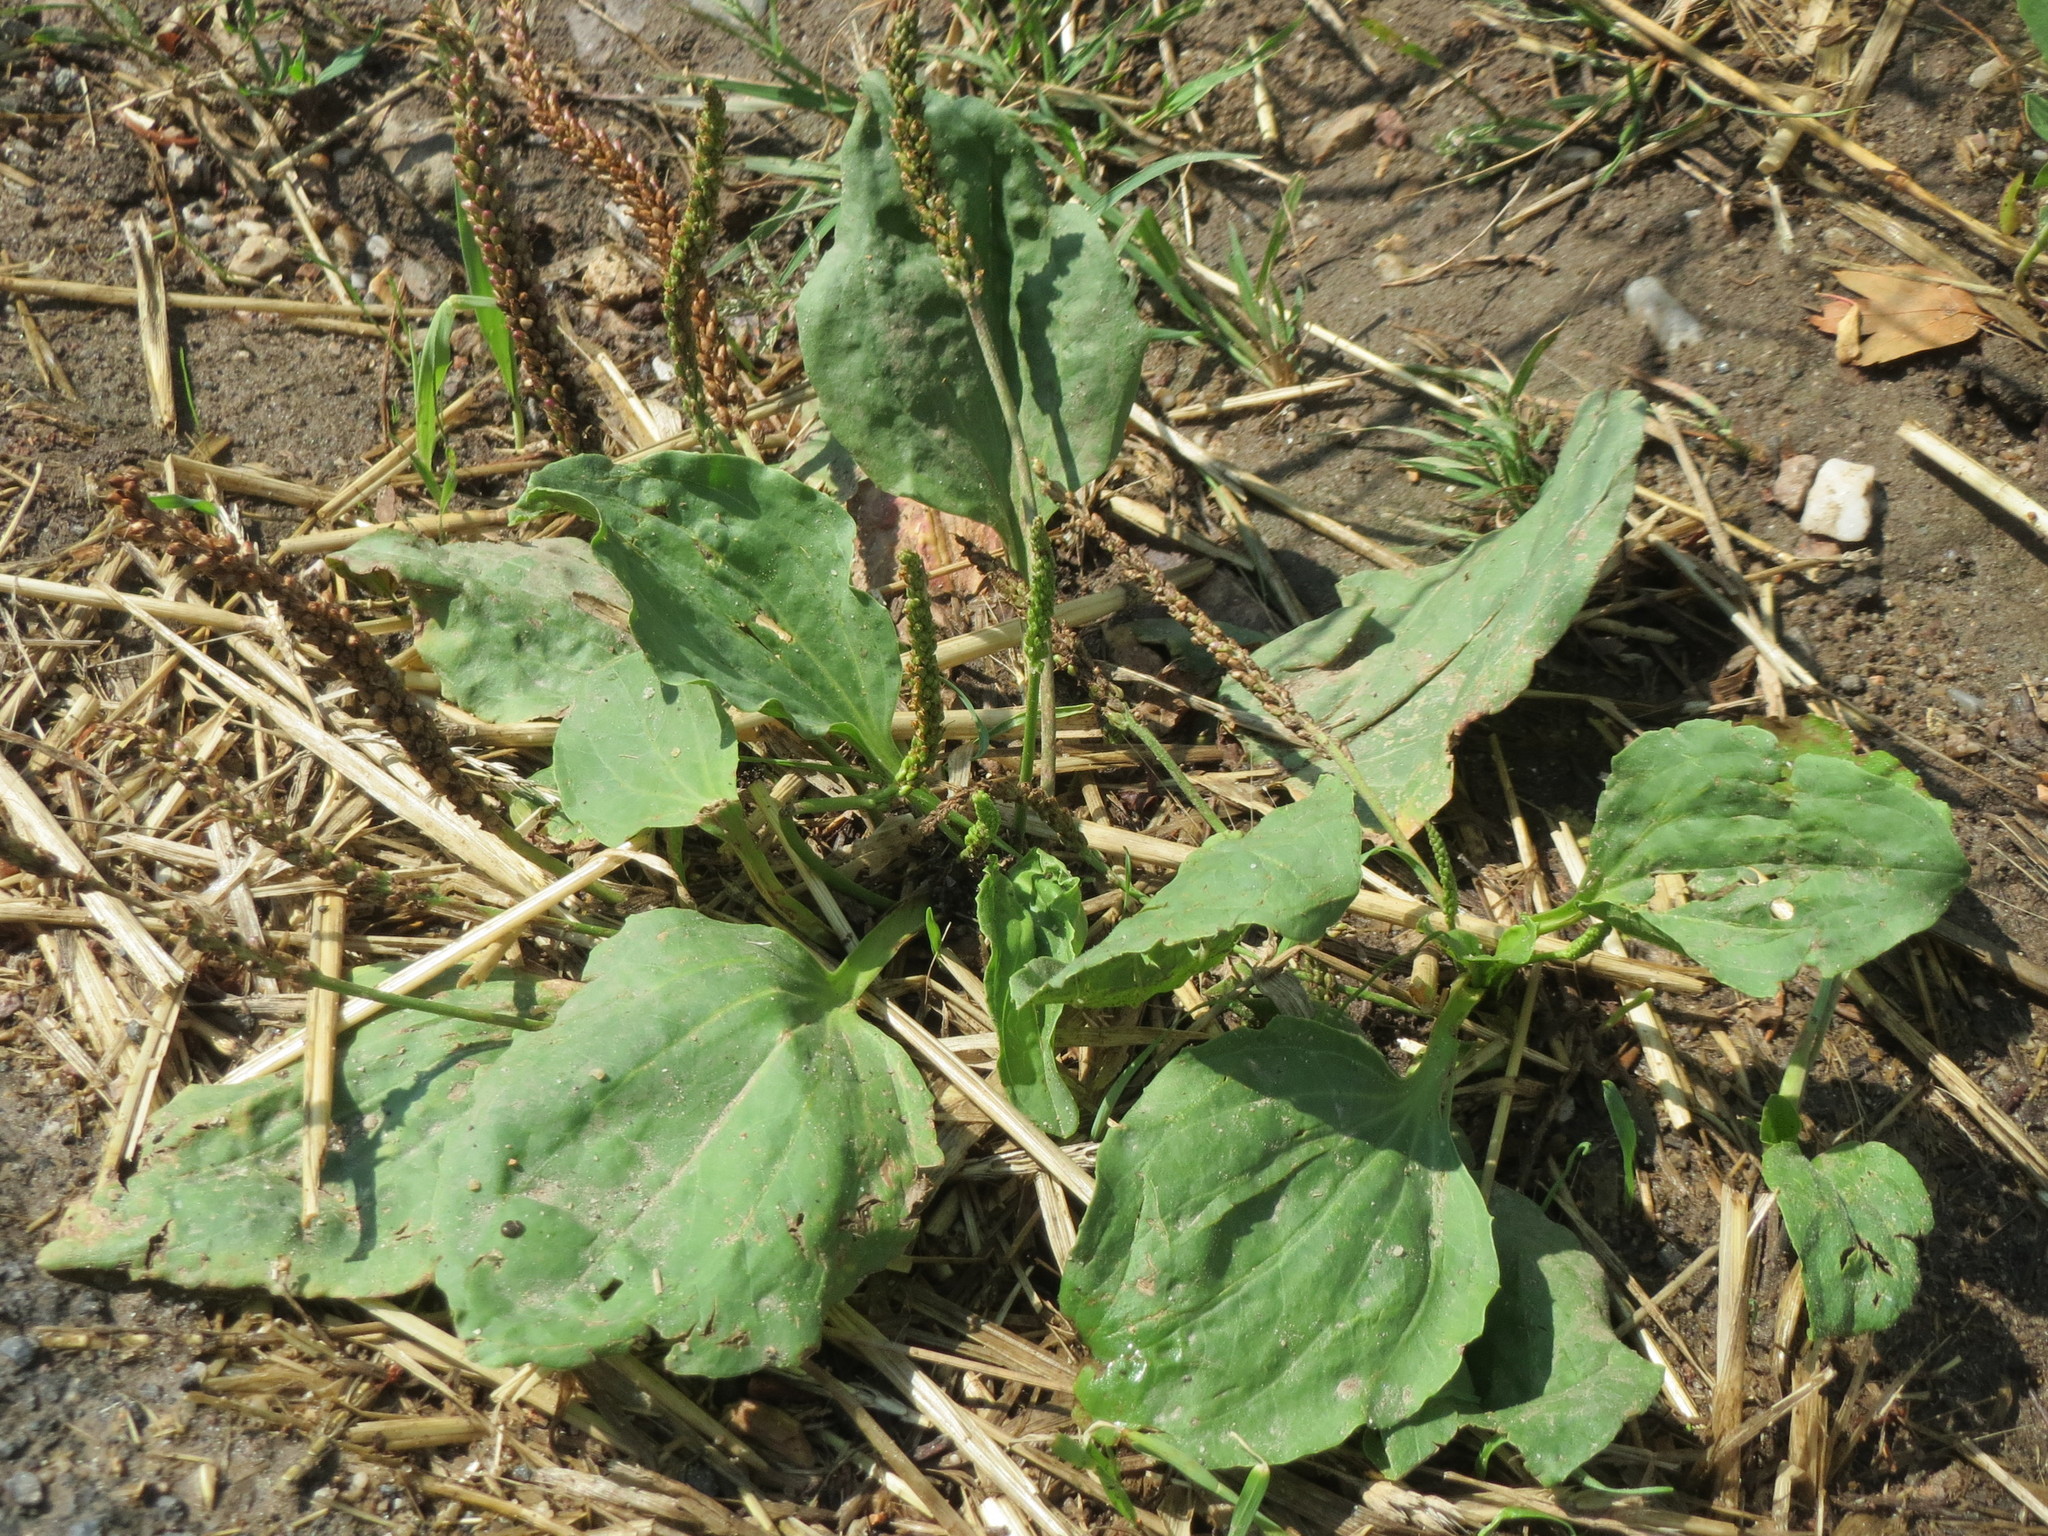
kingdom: Plantae
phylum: Tracheophyta
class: Magnoliopsida
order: Lamiales
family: Plantaginaceae
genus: Plantago
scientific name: Plantago major
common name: Common plantain
